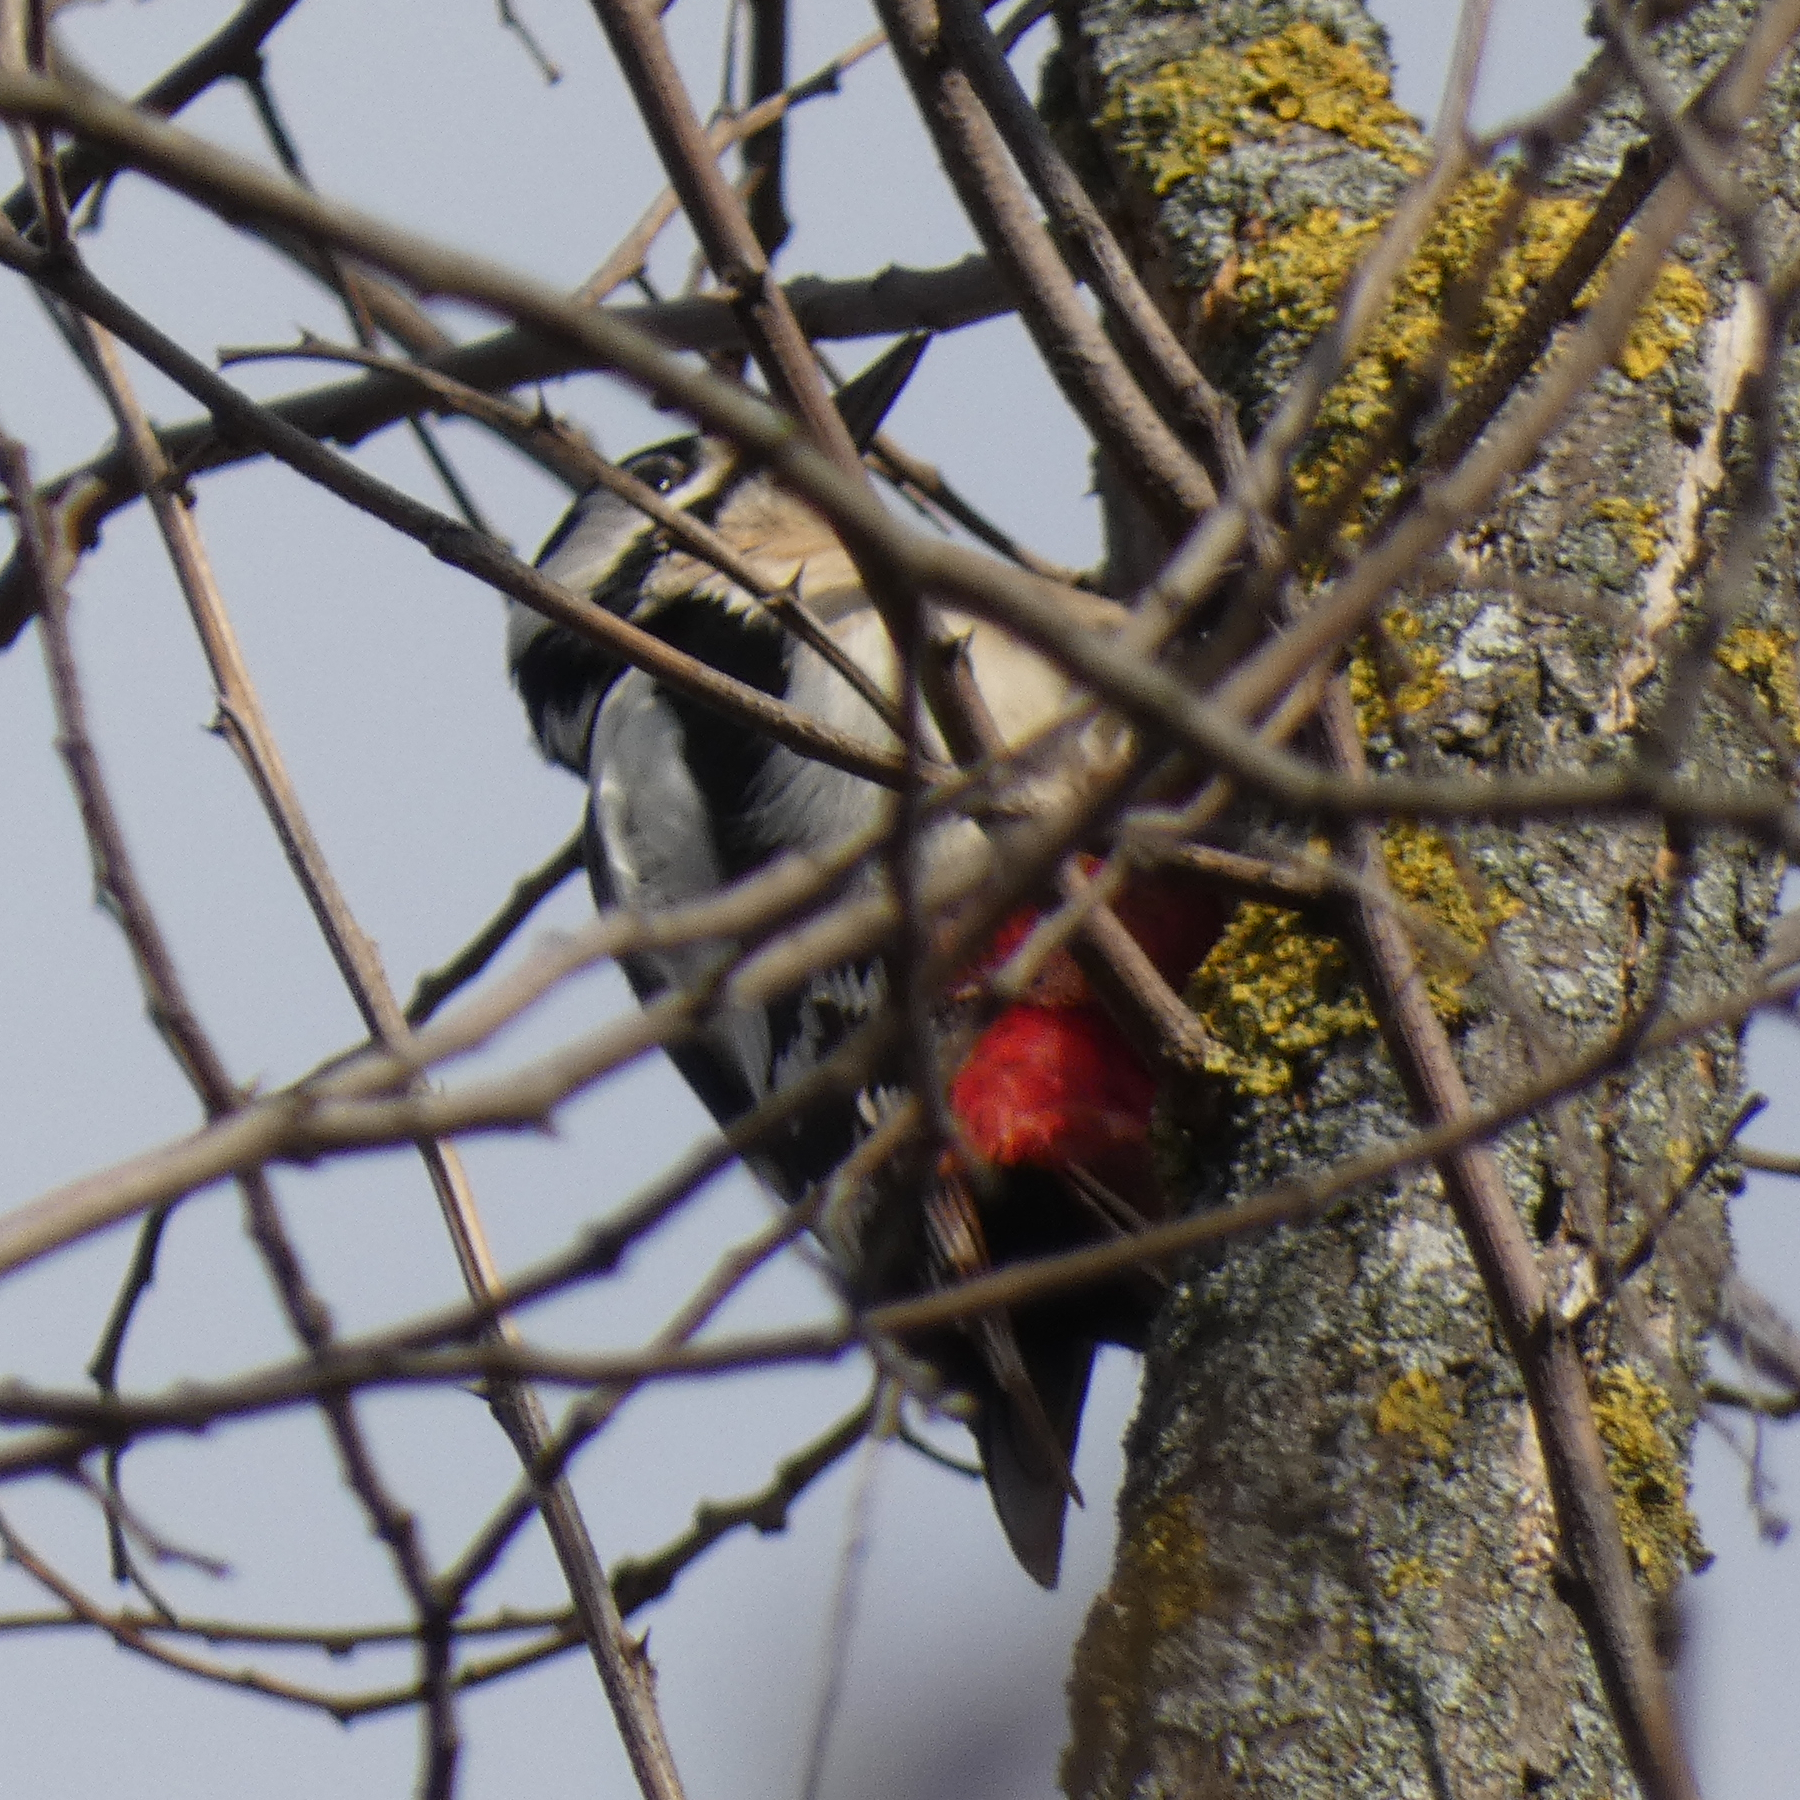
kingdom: Animalia
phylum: Chordata
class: Aves
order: Piciformes
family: Picidae
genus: Dendrocopos
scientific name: Dendrocopos major
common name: Great spotted woodpecker
